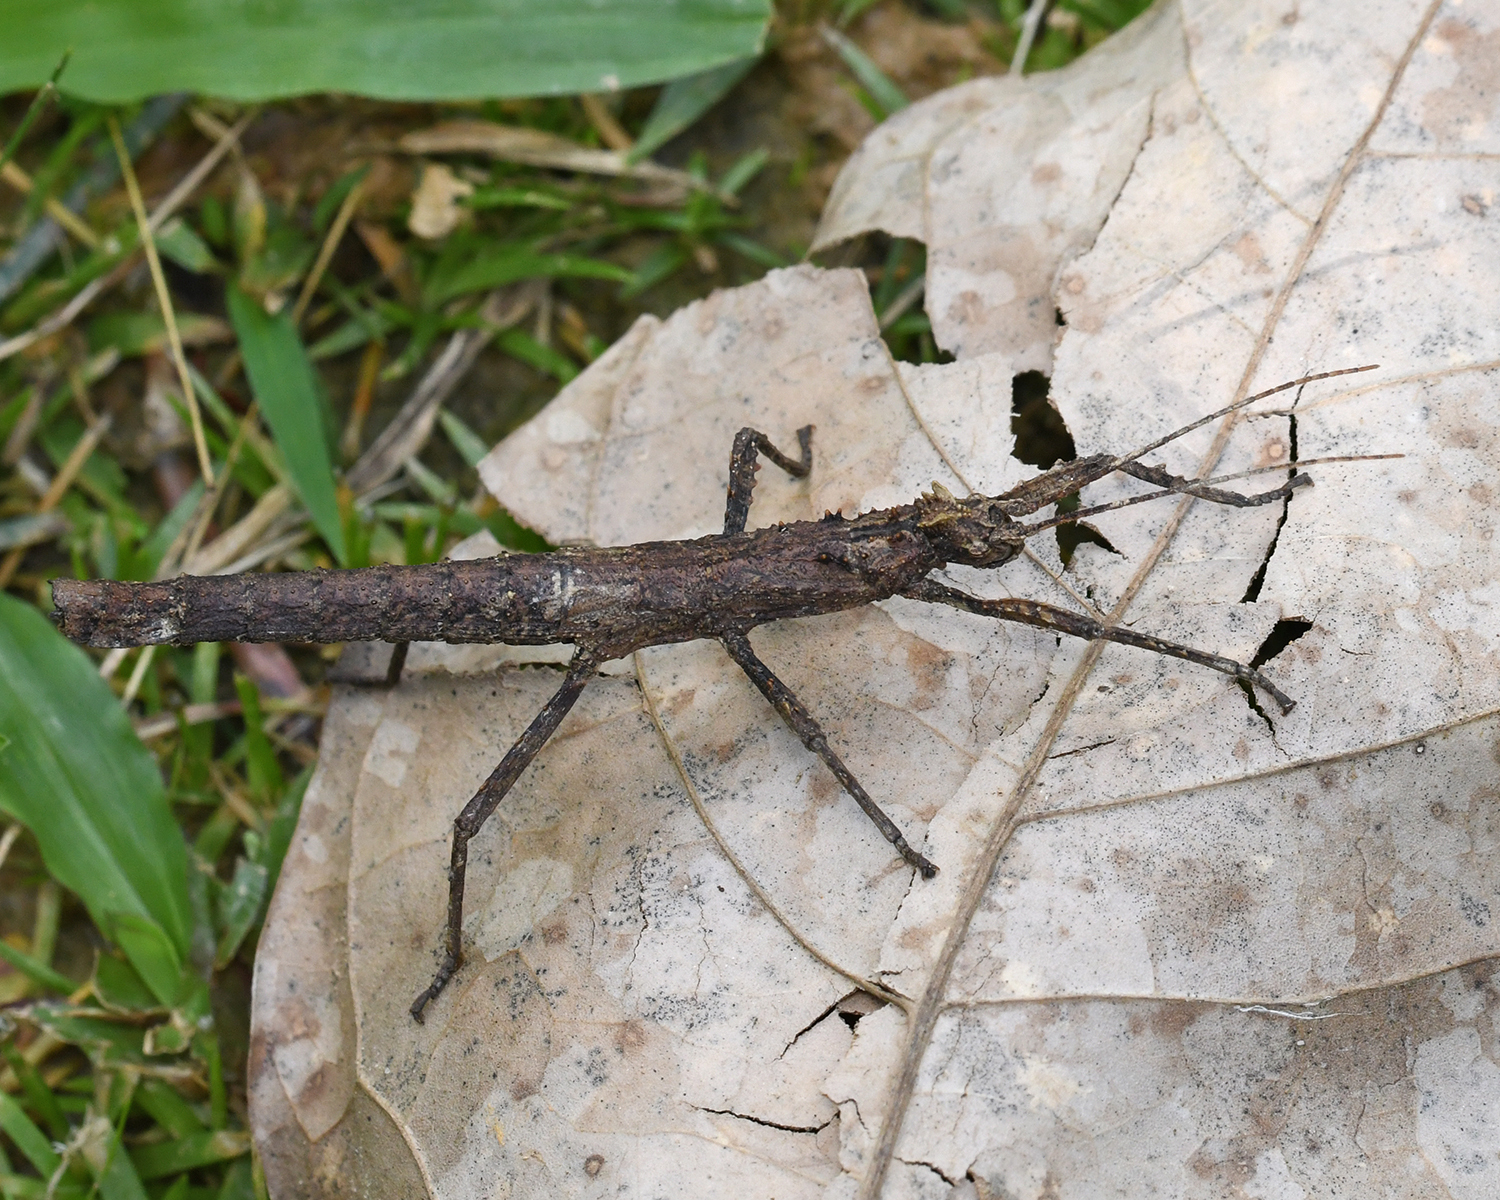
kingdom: Animalia
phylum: Arthropoda
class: Insecta
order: Phasmida
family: Pseudophasmatidae
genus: Creoxylus
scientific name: Creoxylus spinosus
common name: Trinidad log stick insect
